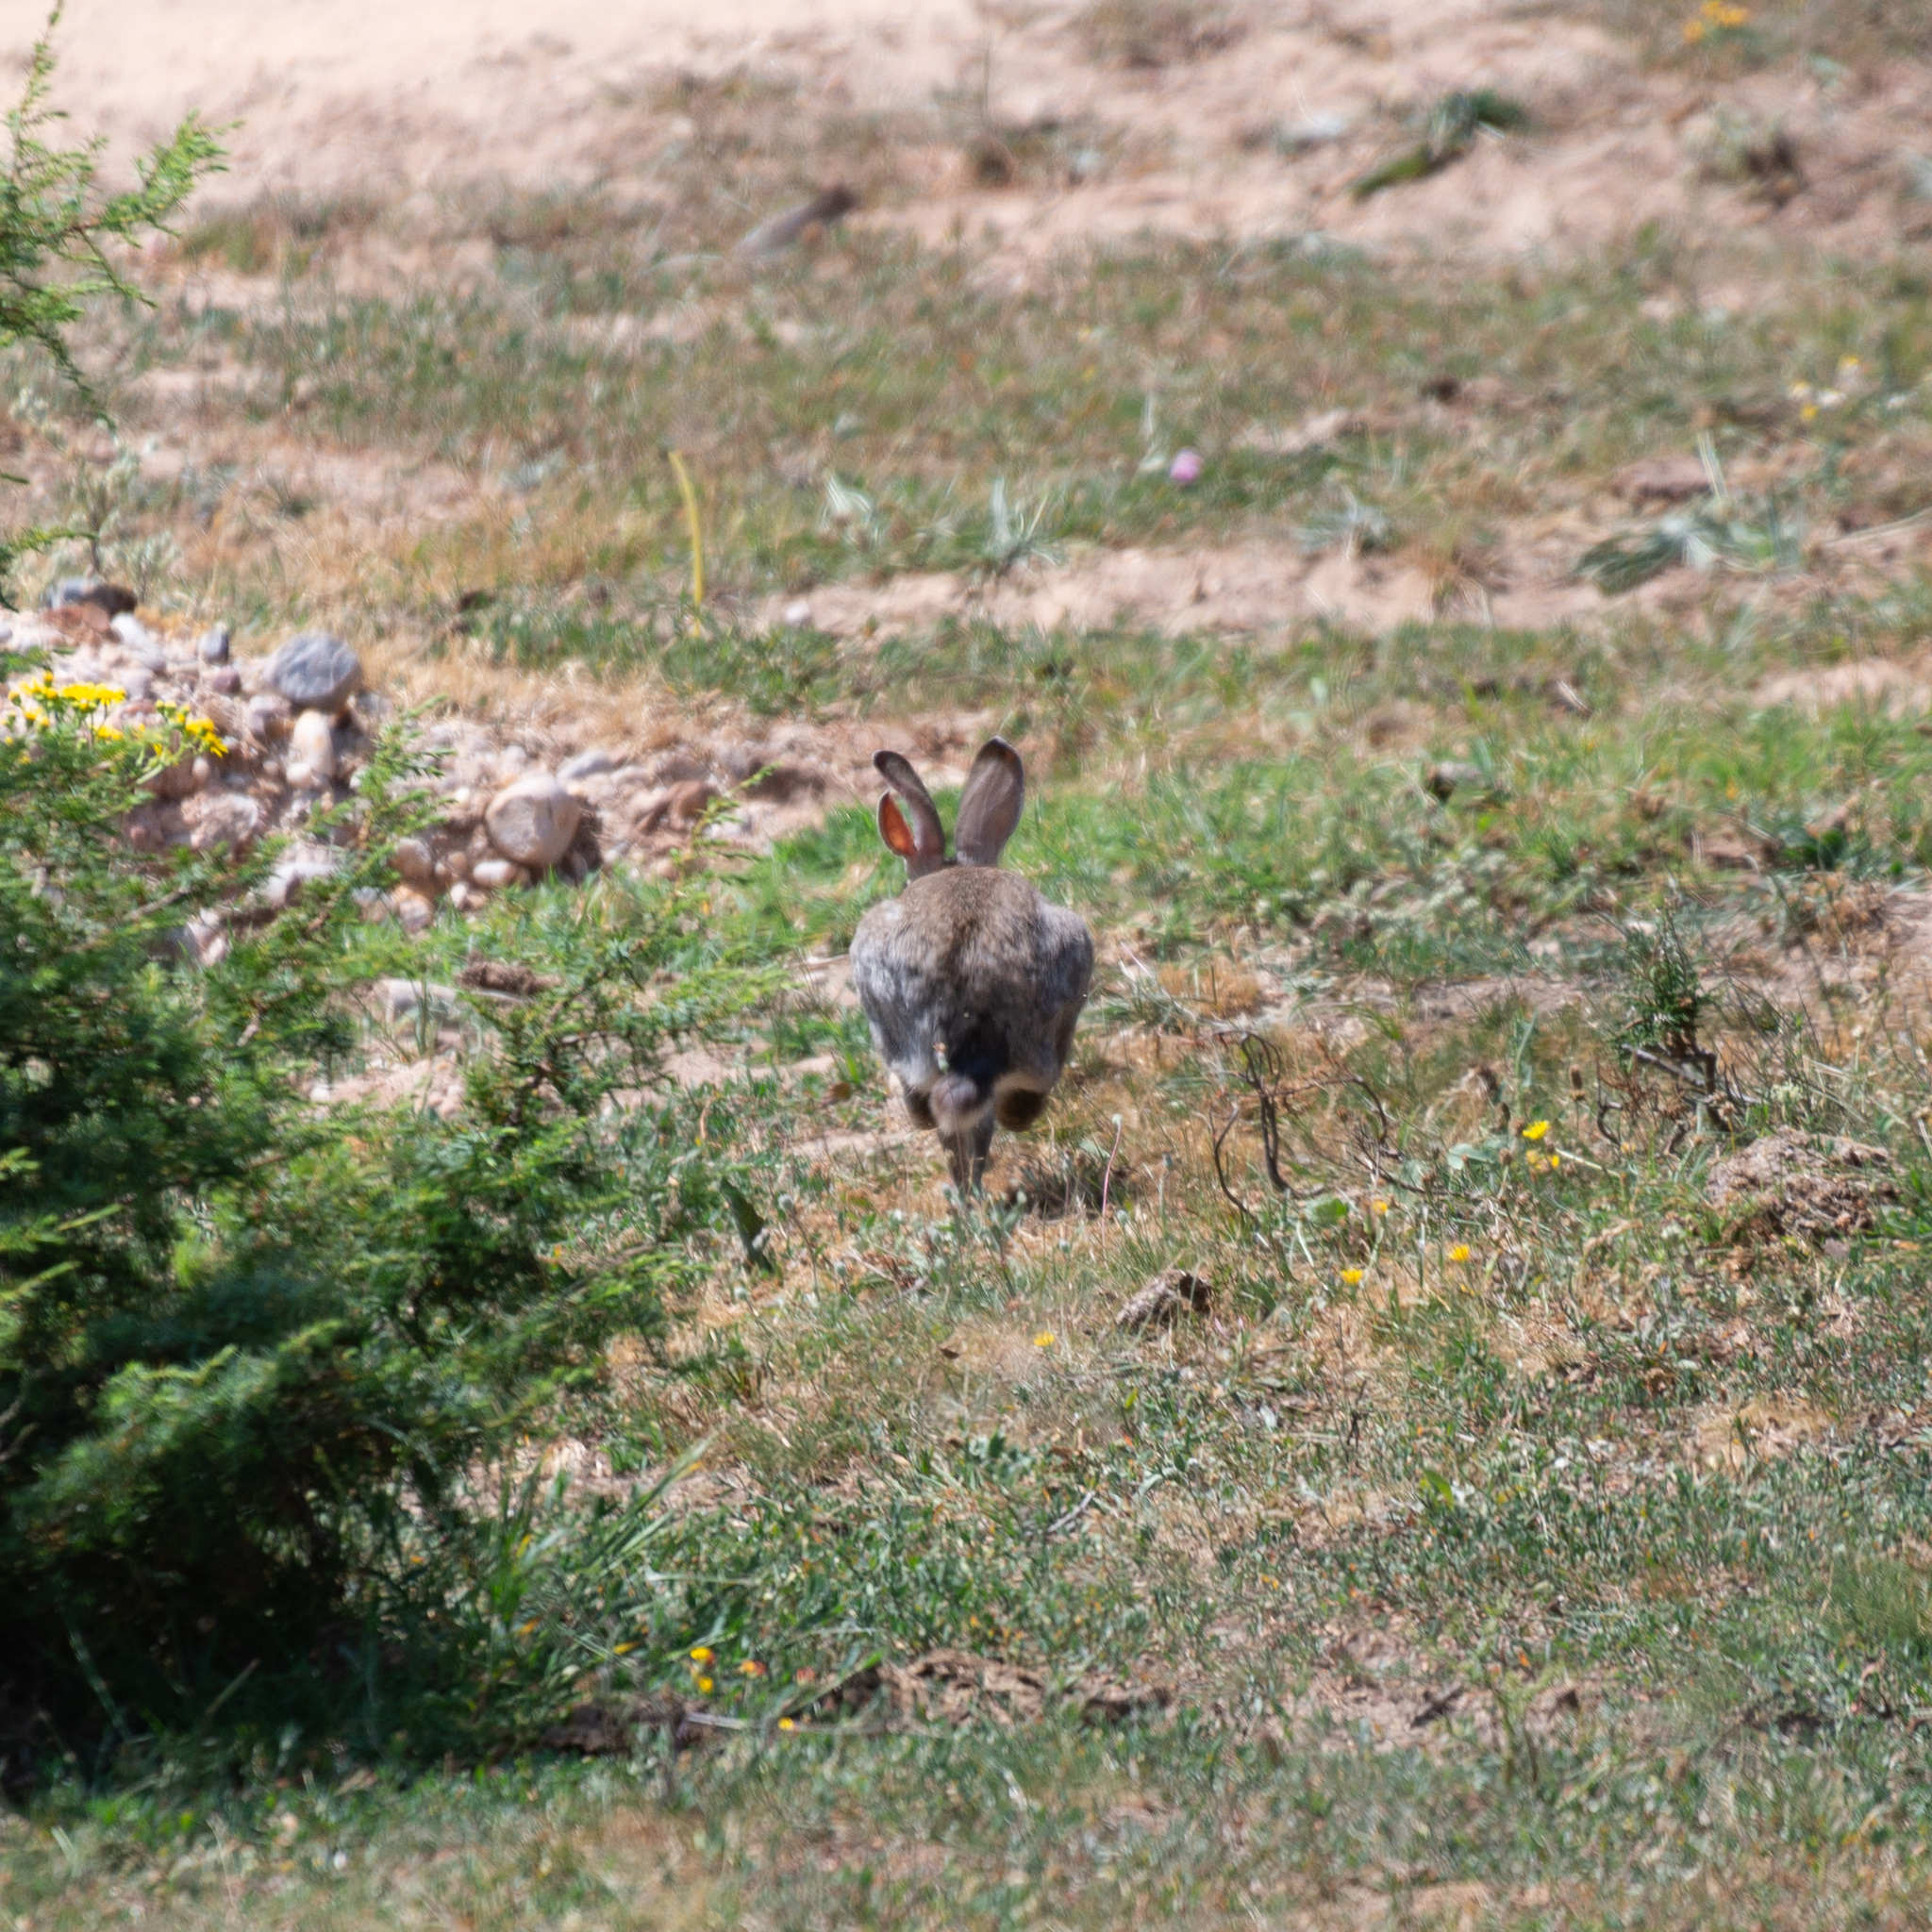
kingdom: Animalia
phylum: Chordata
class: Mammalia
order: Lagomorpha
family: Leporidae
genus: Oryctolagus
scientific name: Oryctolagus cuniculus
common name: European rabbit
